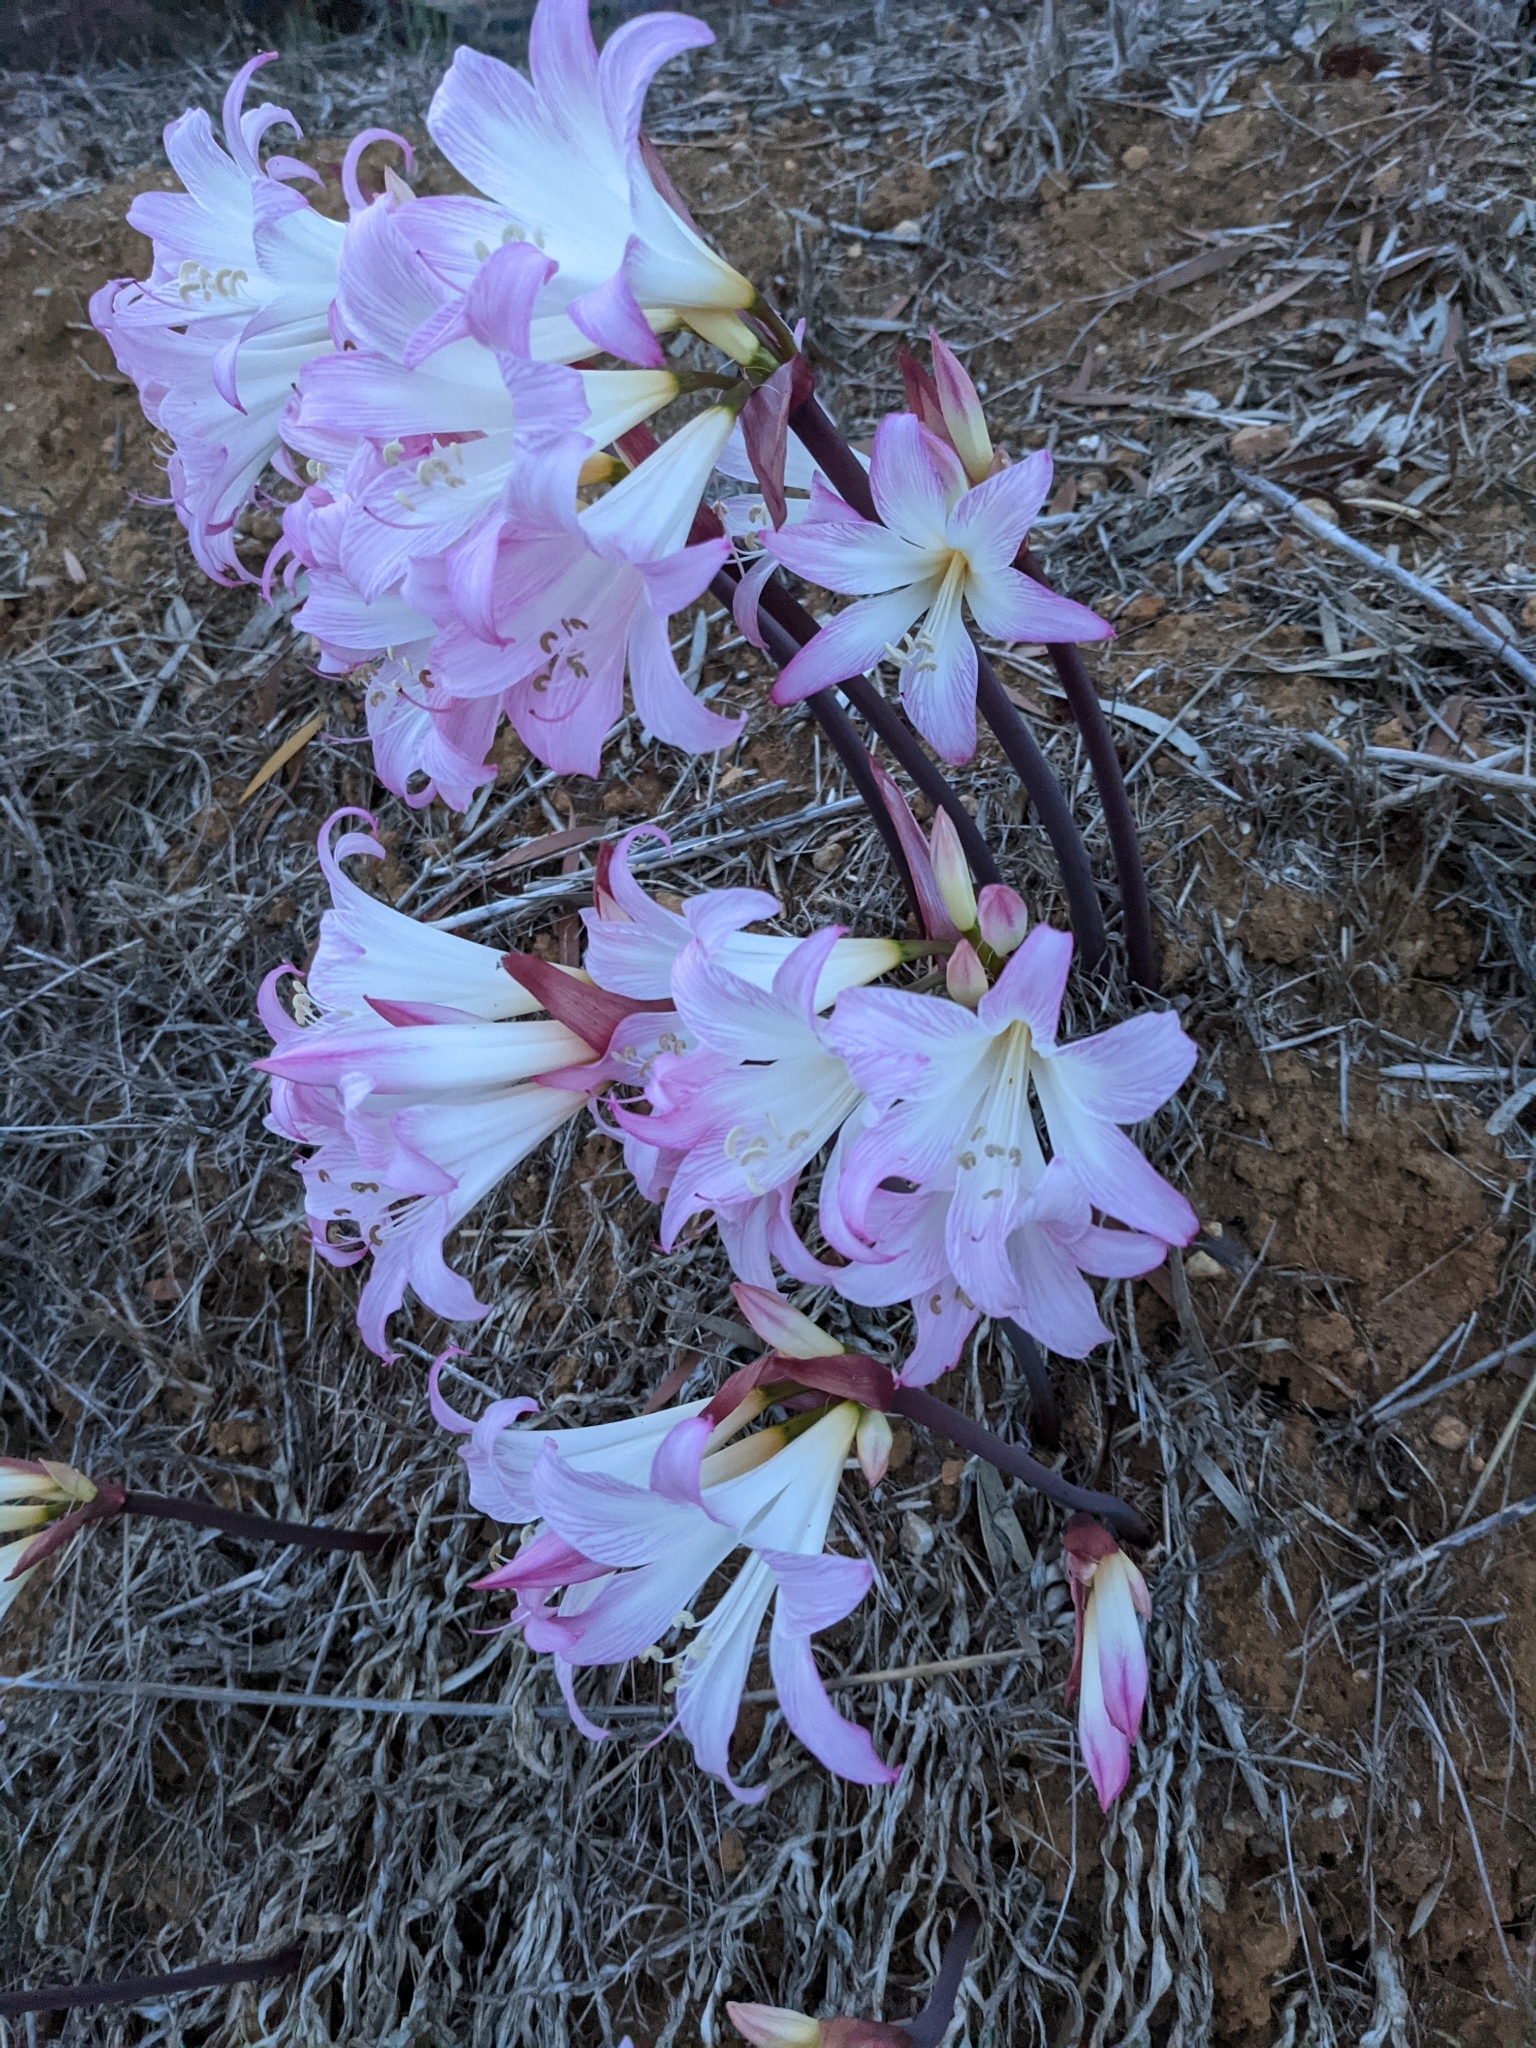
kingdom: Plantae
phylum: Tracheophyta
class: Liliopsida
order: Asparagales
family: Amaryllidaceae
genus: Amaryllis
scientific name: Amaryllis belladonna
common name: Jersey lily
